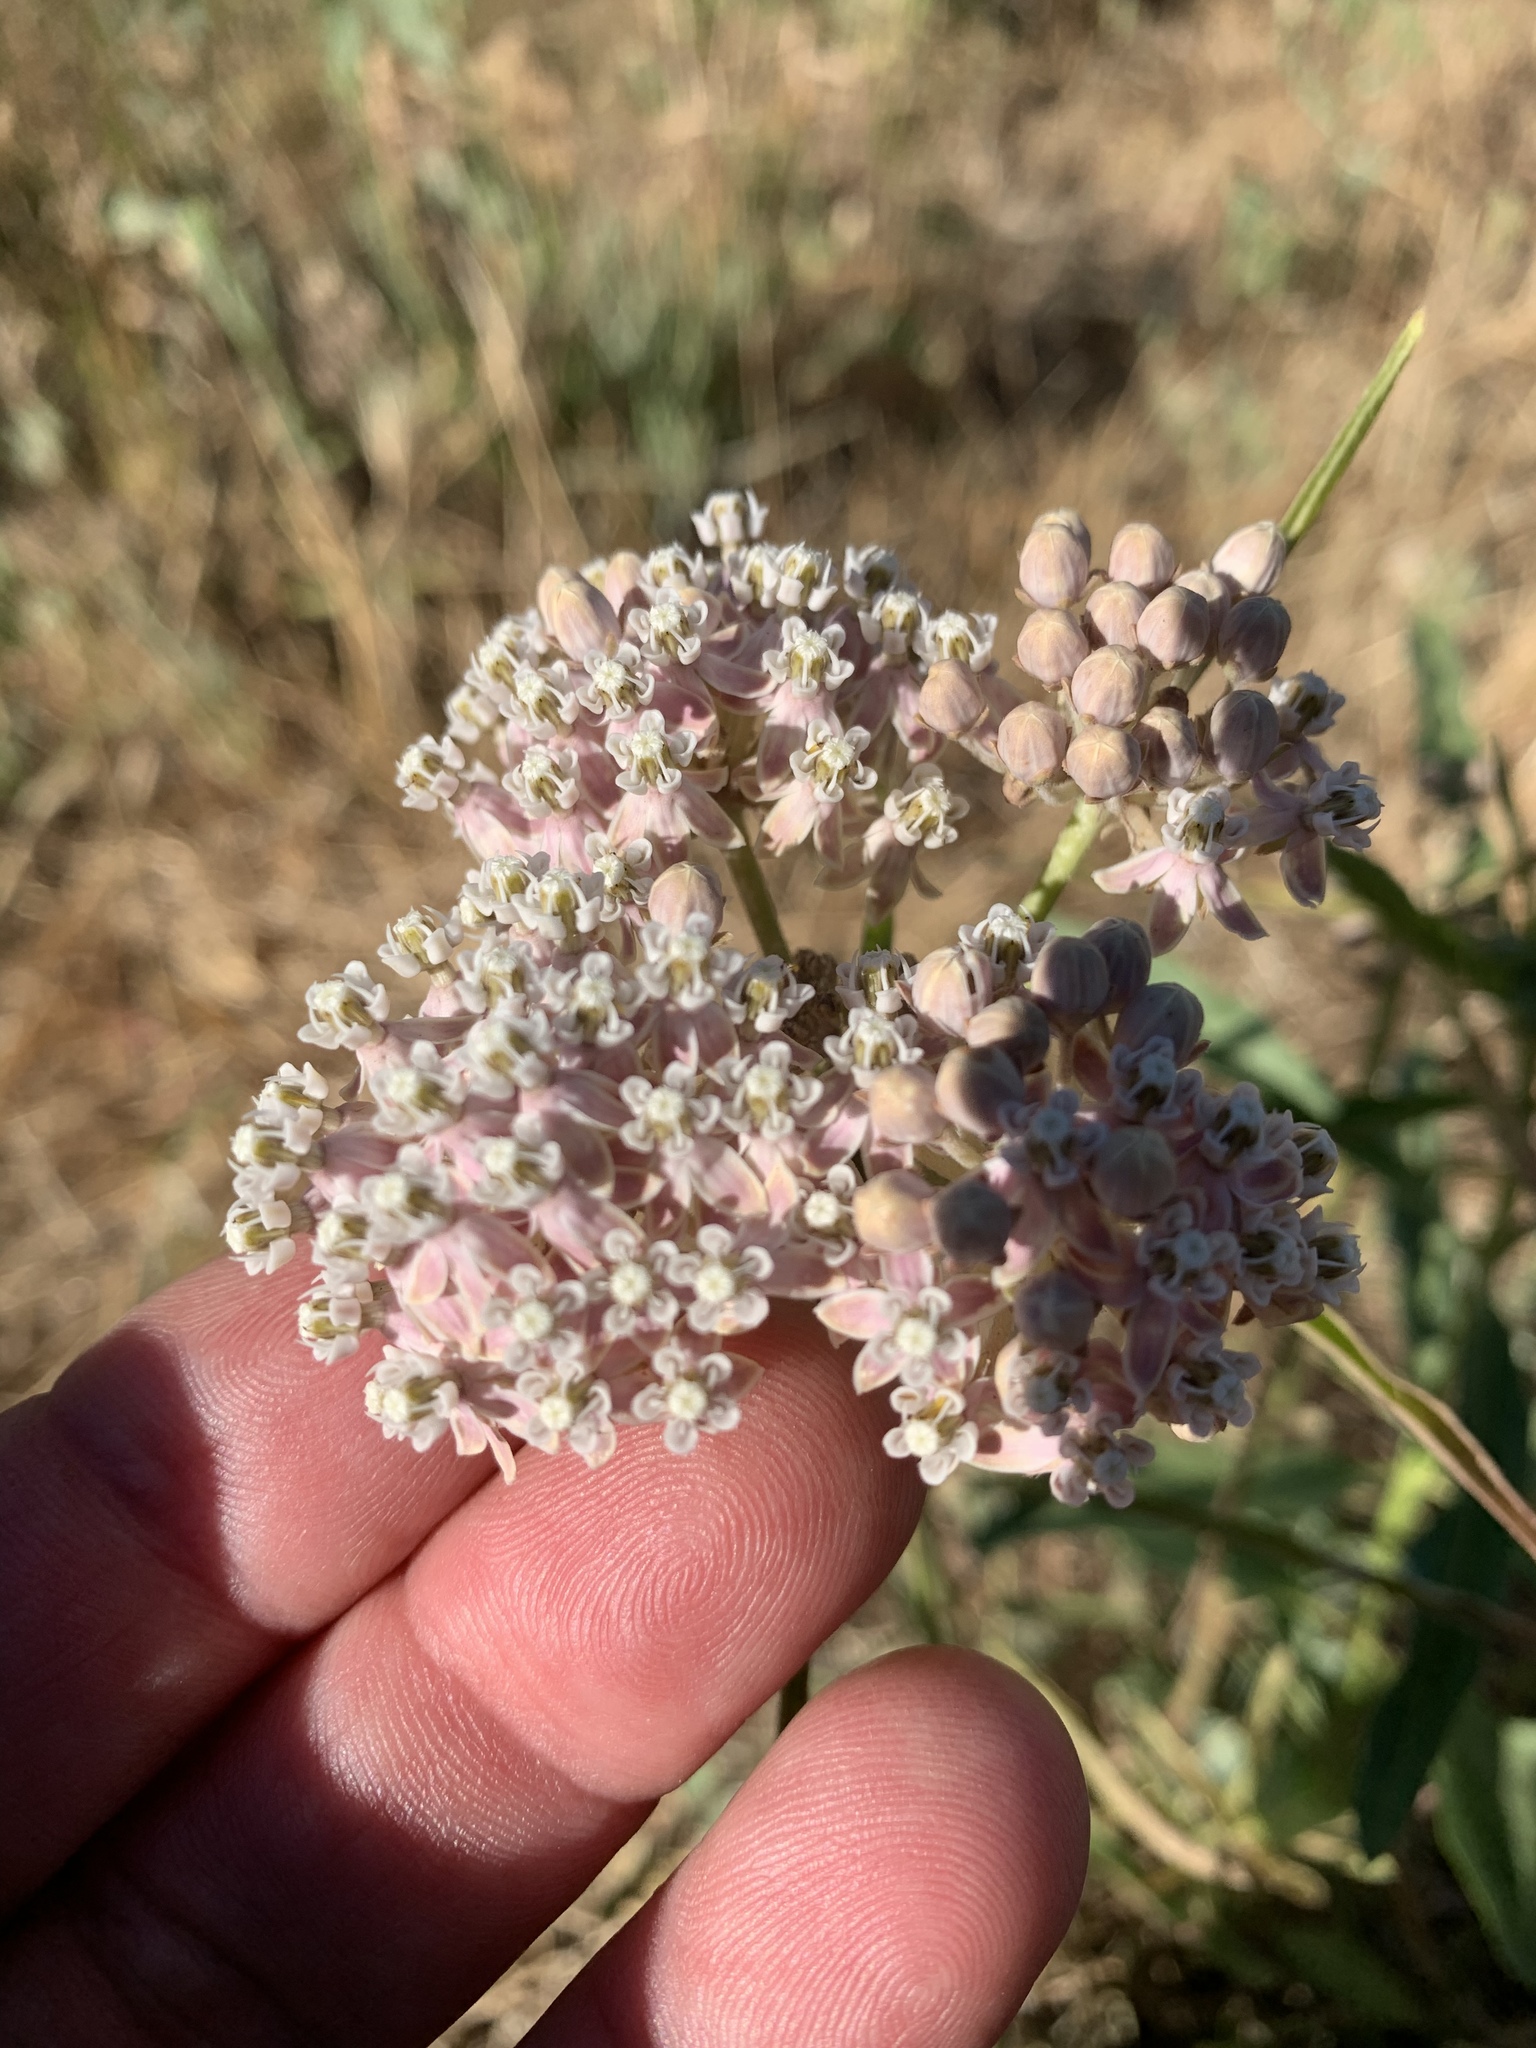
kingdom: Plantae
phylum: Tracheophyta
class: Magnoliopsida
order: Gentianales
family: Apocynaceae
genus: Asclepias
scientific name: Asclepias fascicularis
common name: Mexican milkweed
